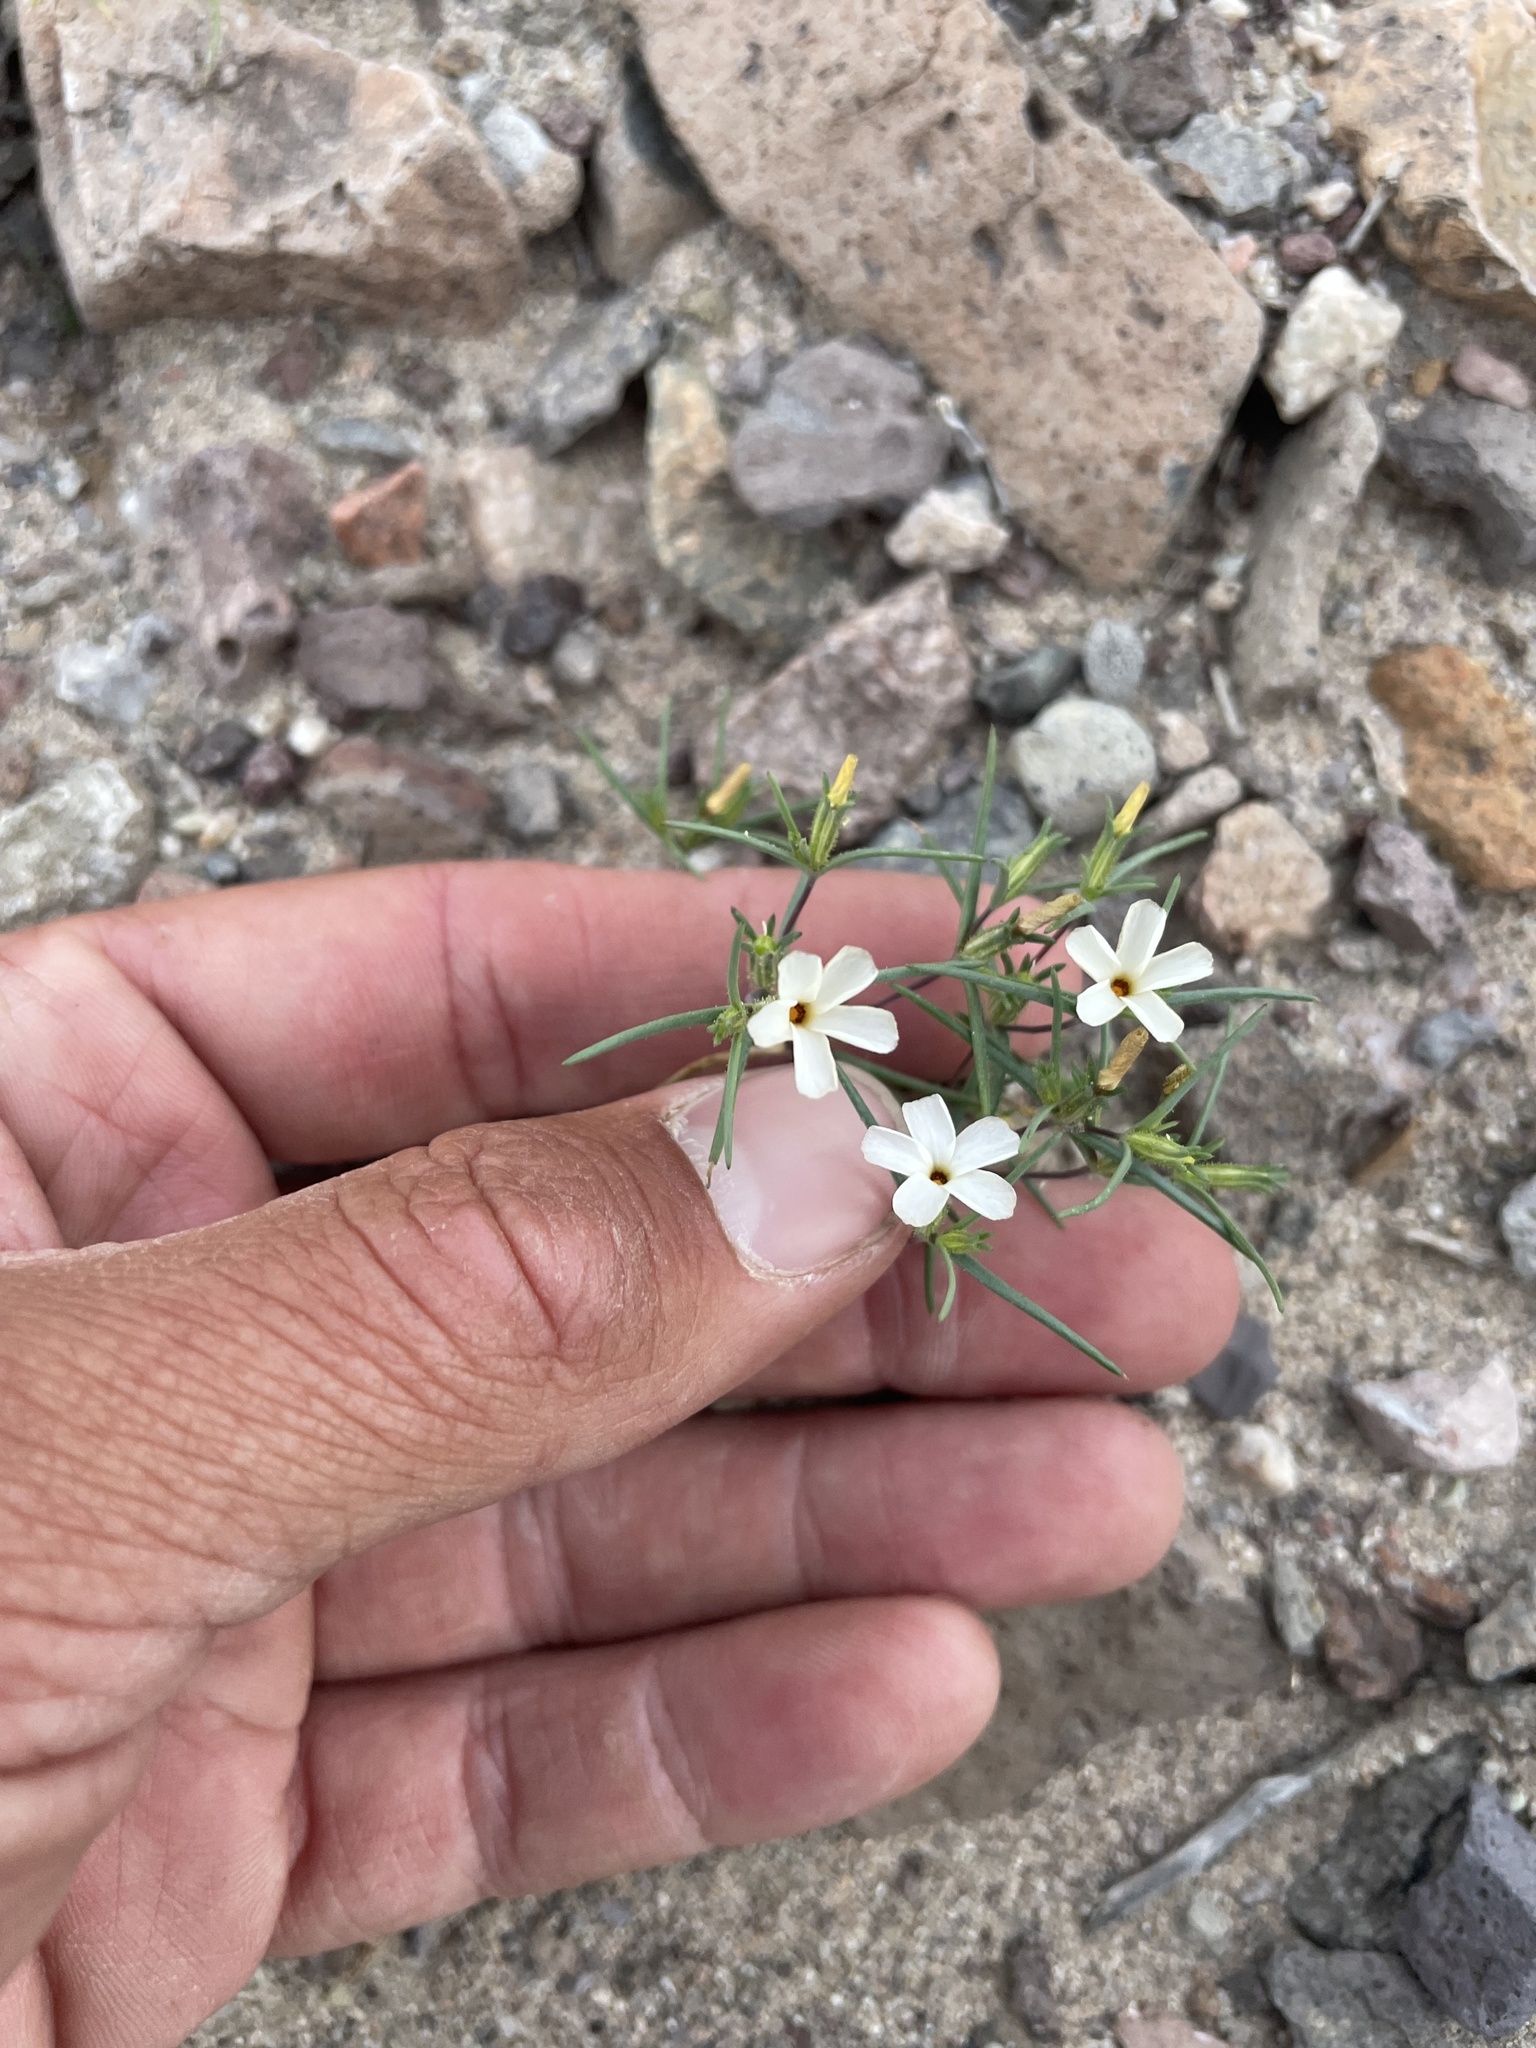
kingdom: Plantae
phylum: Tracheophyta
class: Magnoliopsida
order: Ericales
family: Polemoniaceae
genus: Linanthus
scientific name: Linanthus jonesii
